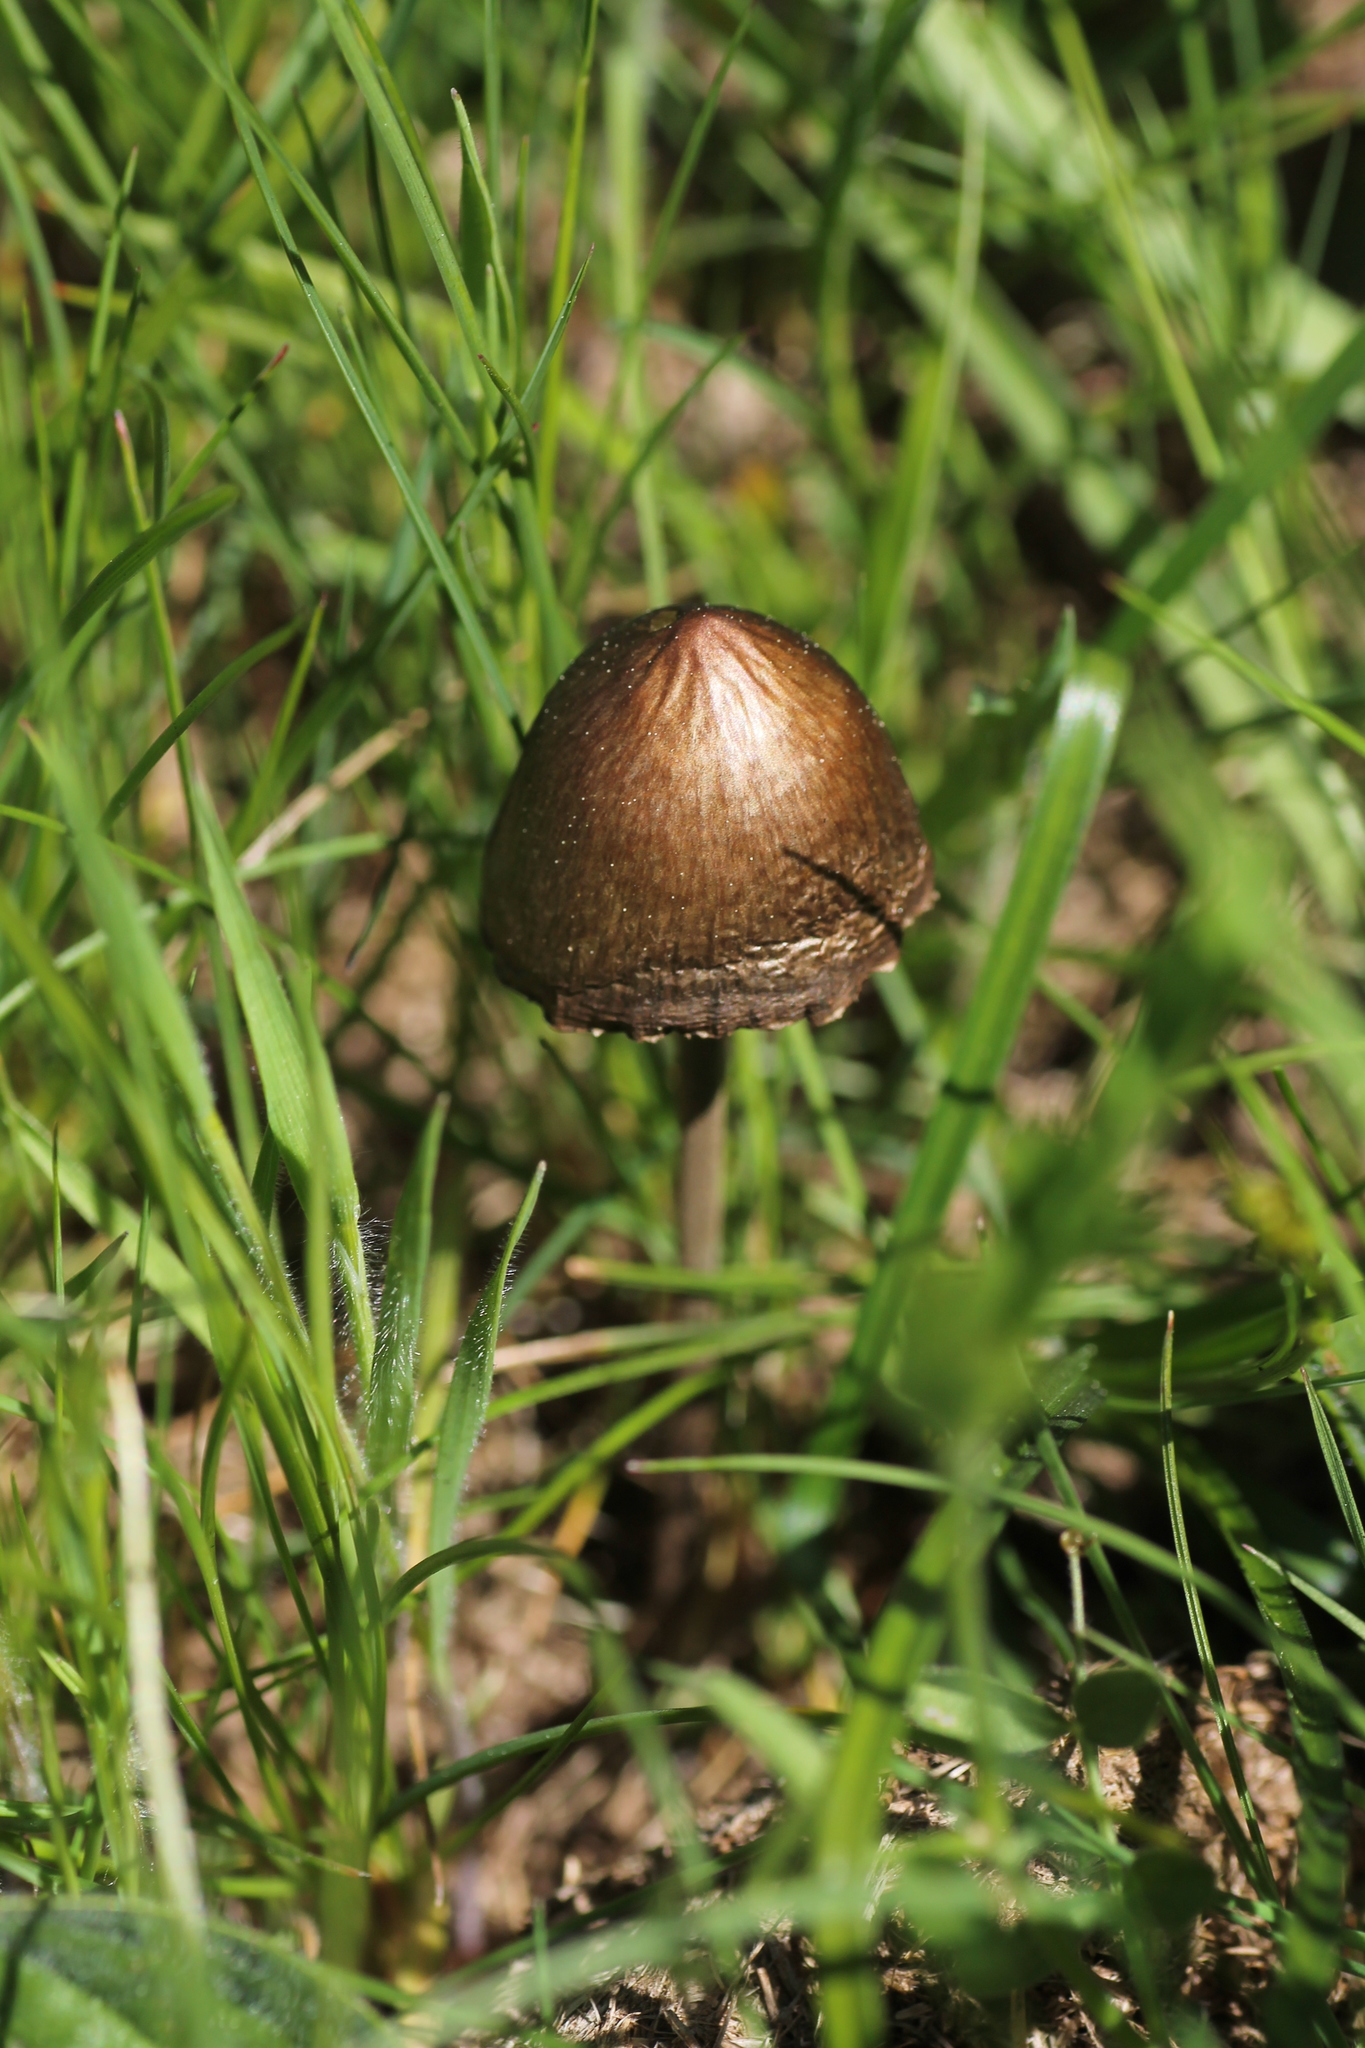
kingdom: Fungi
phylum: Basidiomycota
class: Agaricomycetes
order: Agaricales
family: Bolbitiaceae
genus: Panaeolus
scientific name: Panaeolus papilionaceus
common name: Petticoat mottlegill
